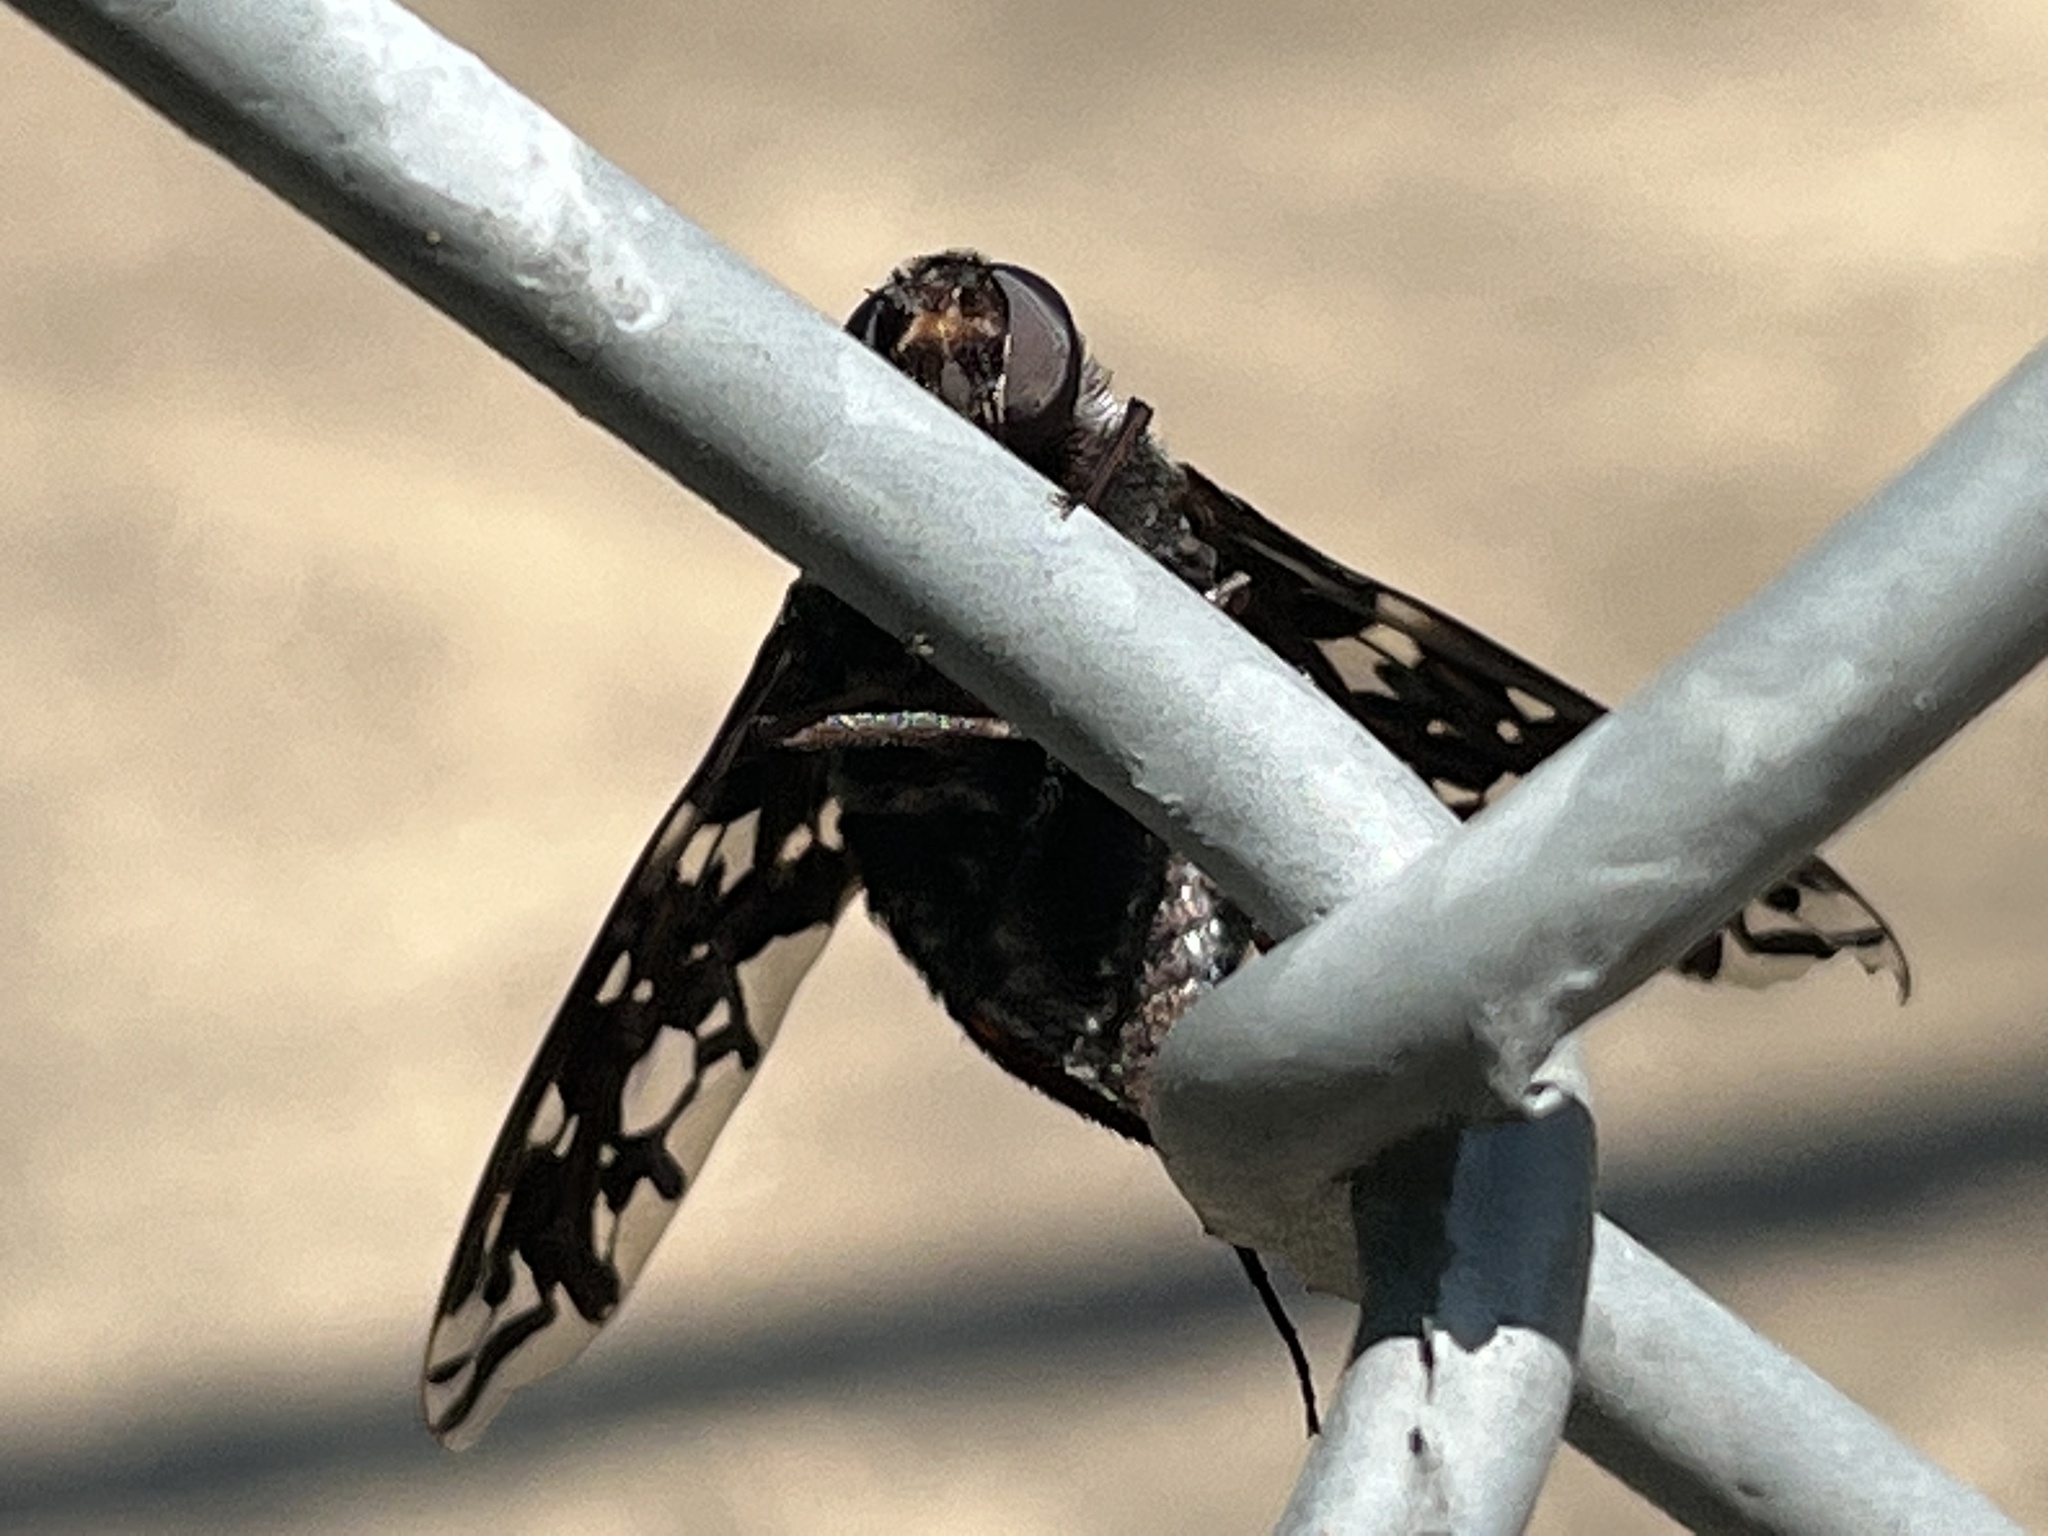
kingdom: Animalia
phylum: Arthropoda
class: Insecta
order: Diptera
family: Bombyliidae
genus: Xenox
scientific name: Xenox tigrinus
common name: Tiger bee fly
